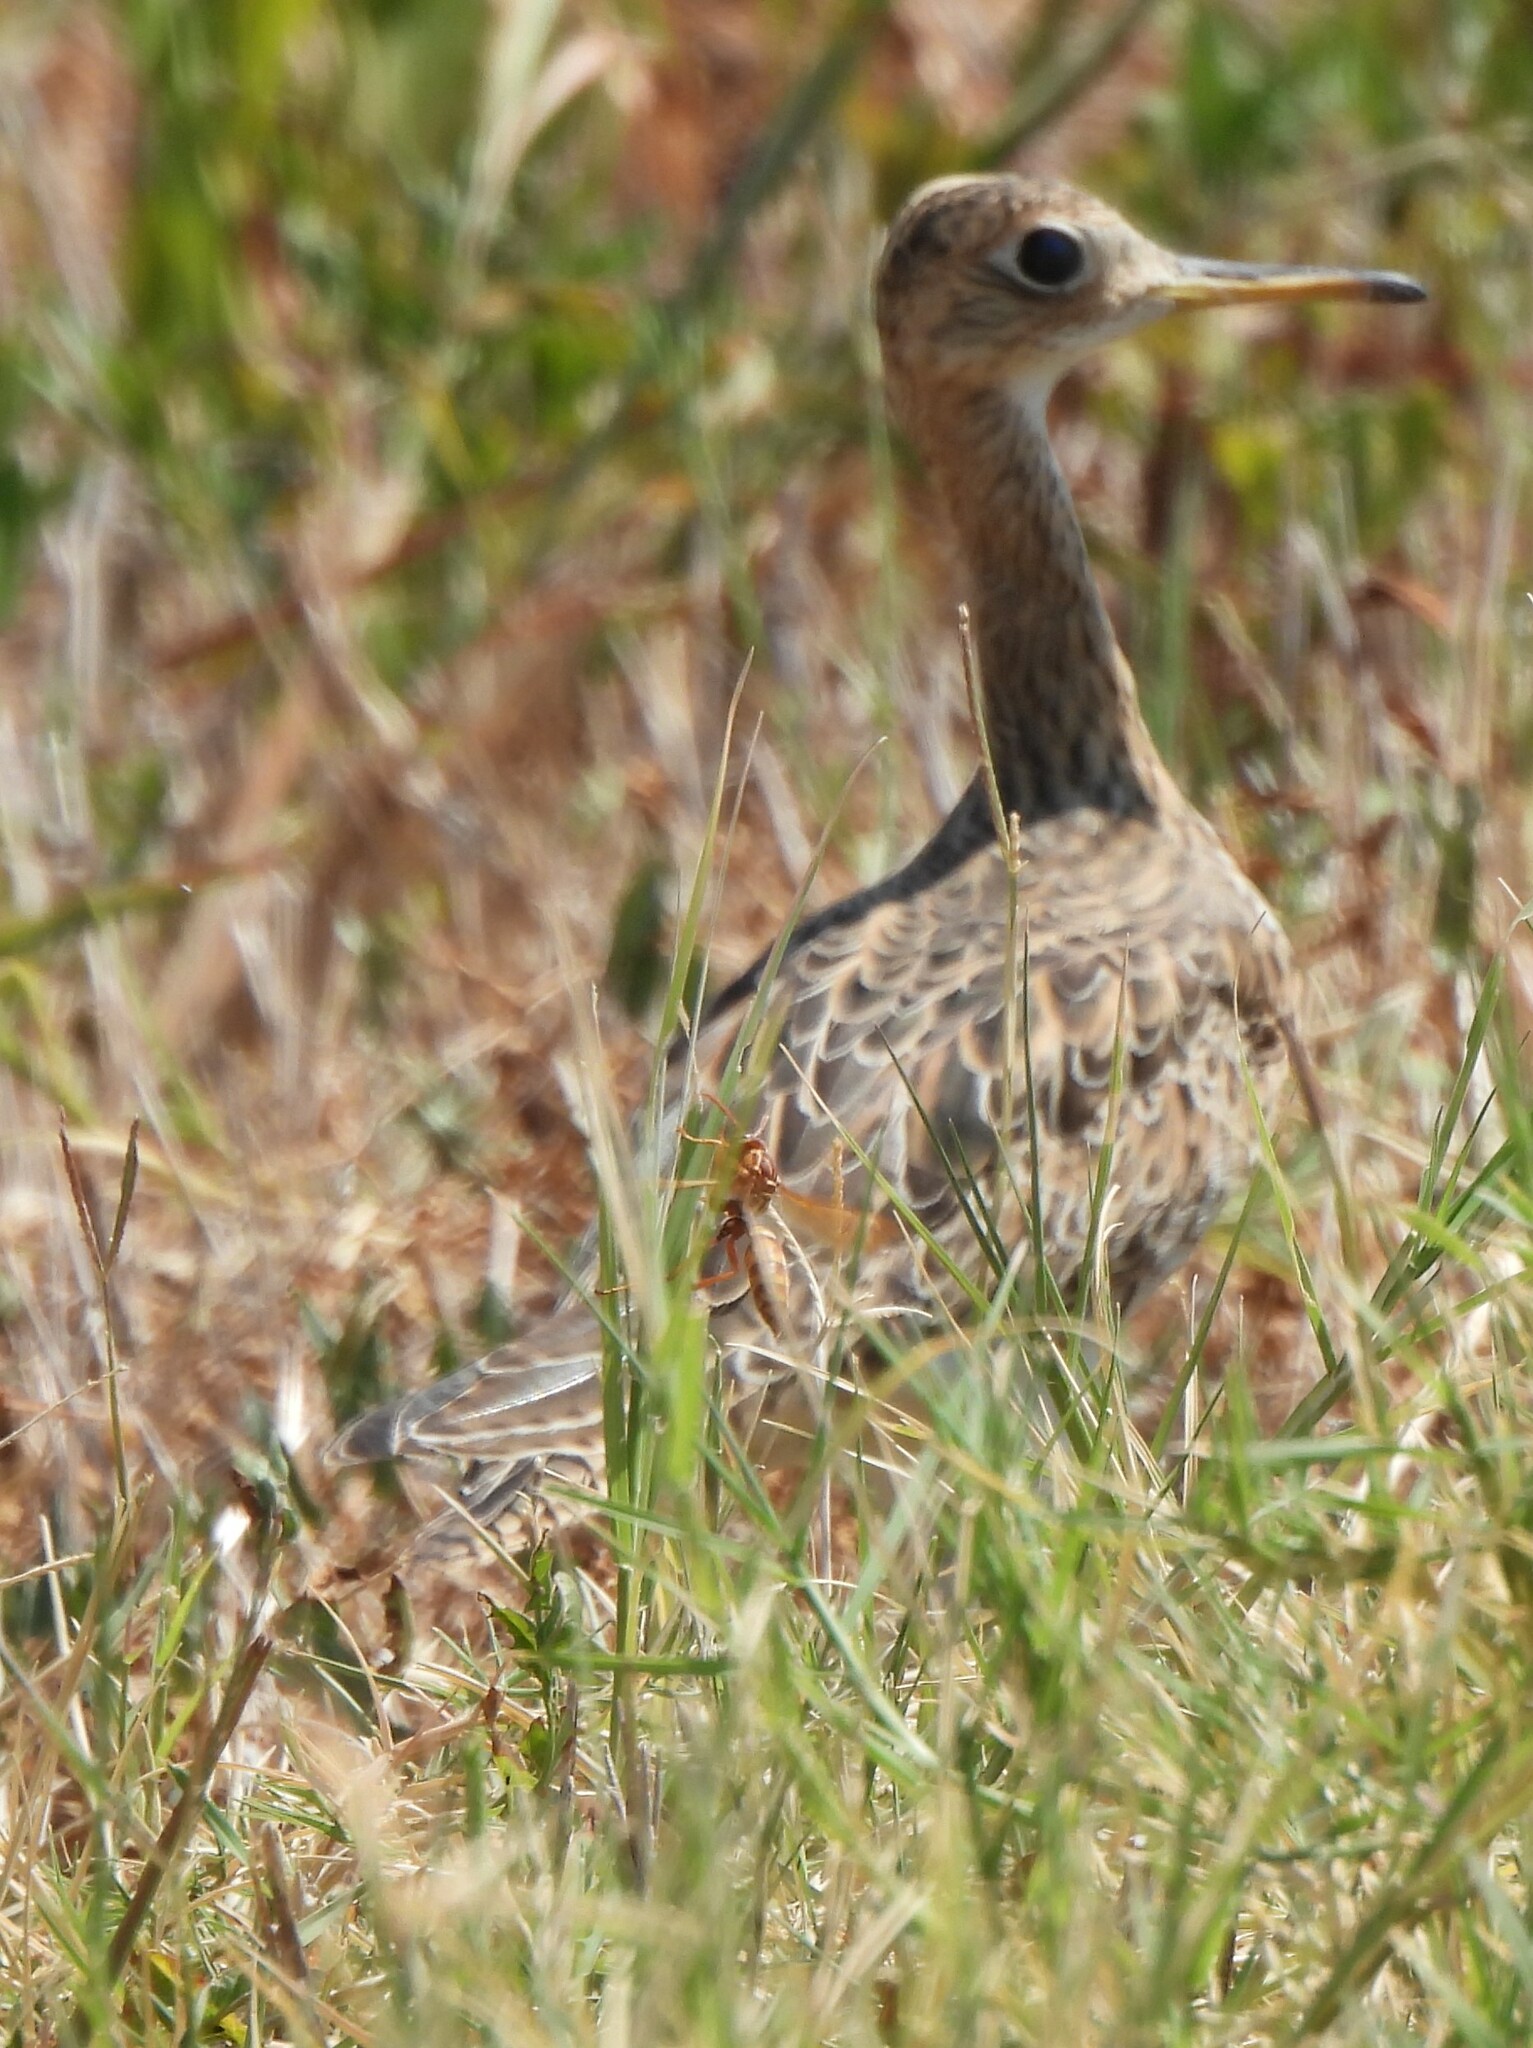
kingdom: Animalia
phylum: Chordata
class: Aves
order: Charadriiformes
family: Scolopacidae
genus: Bartramia
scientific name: Bartramia longicauda
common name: Upland sandpiper
